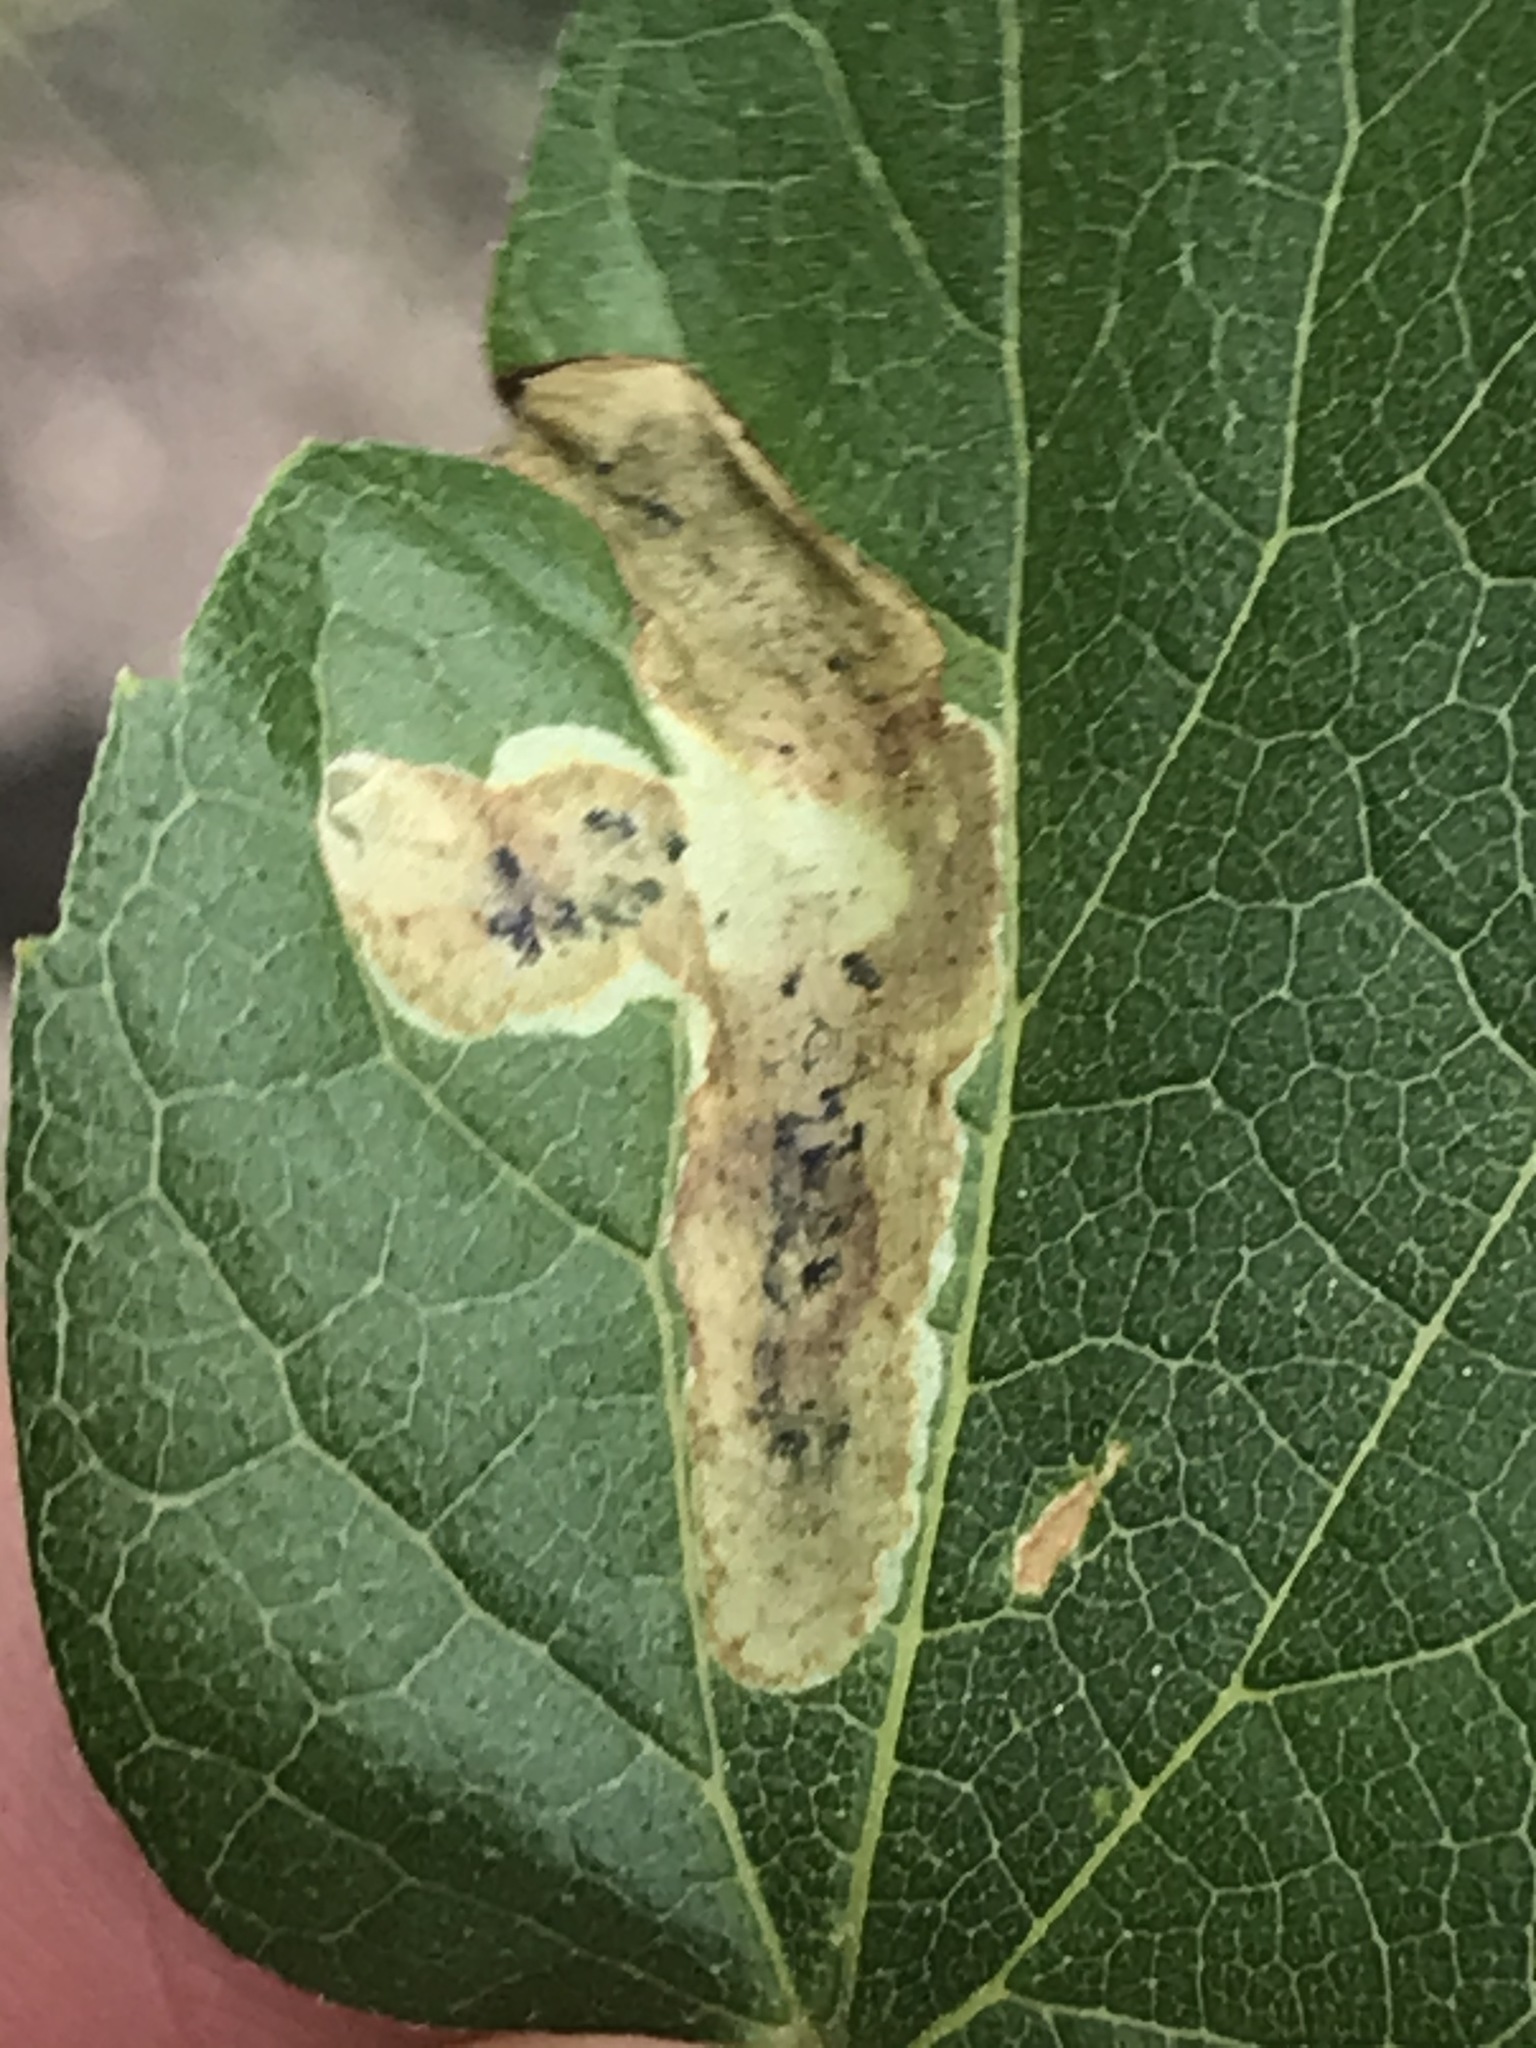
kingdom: Animalia
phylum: Arthropoda
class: Insecta
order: Diptera
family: Agromyzidae
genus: Agromyza
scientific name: Agromyza pallidiseta
